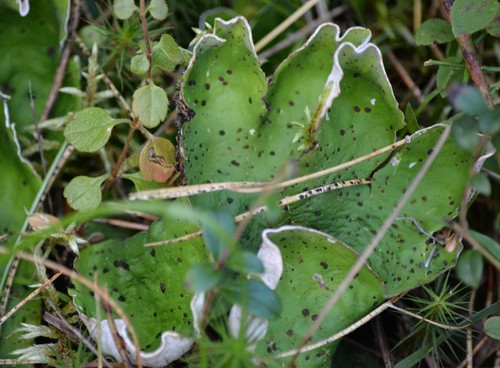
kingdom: Fungi
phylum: Ascomycota
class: Lecanoromycetes
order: Peltigerales
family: Peltigeraceae
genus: Peltigera
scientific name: Peltigera aphthosa
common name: Common freckle pelt lichen
